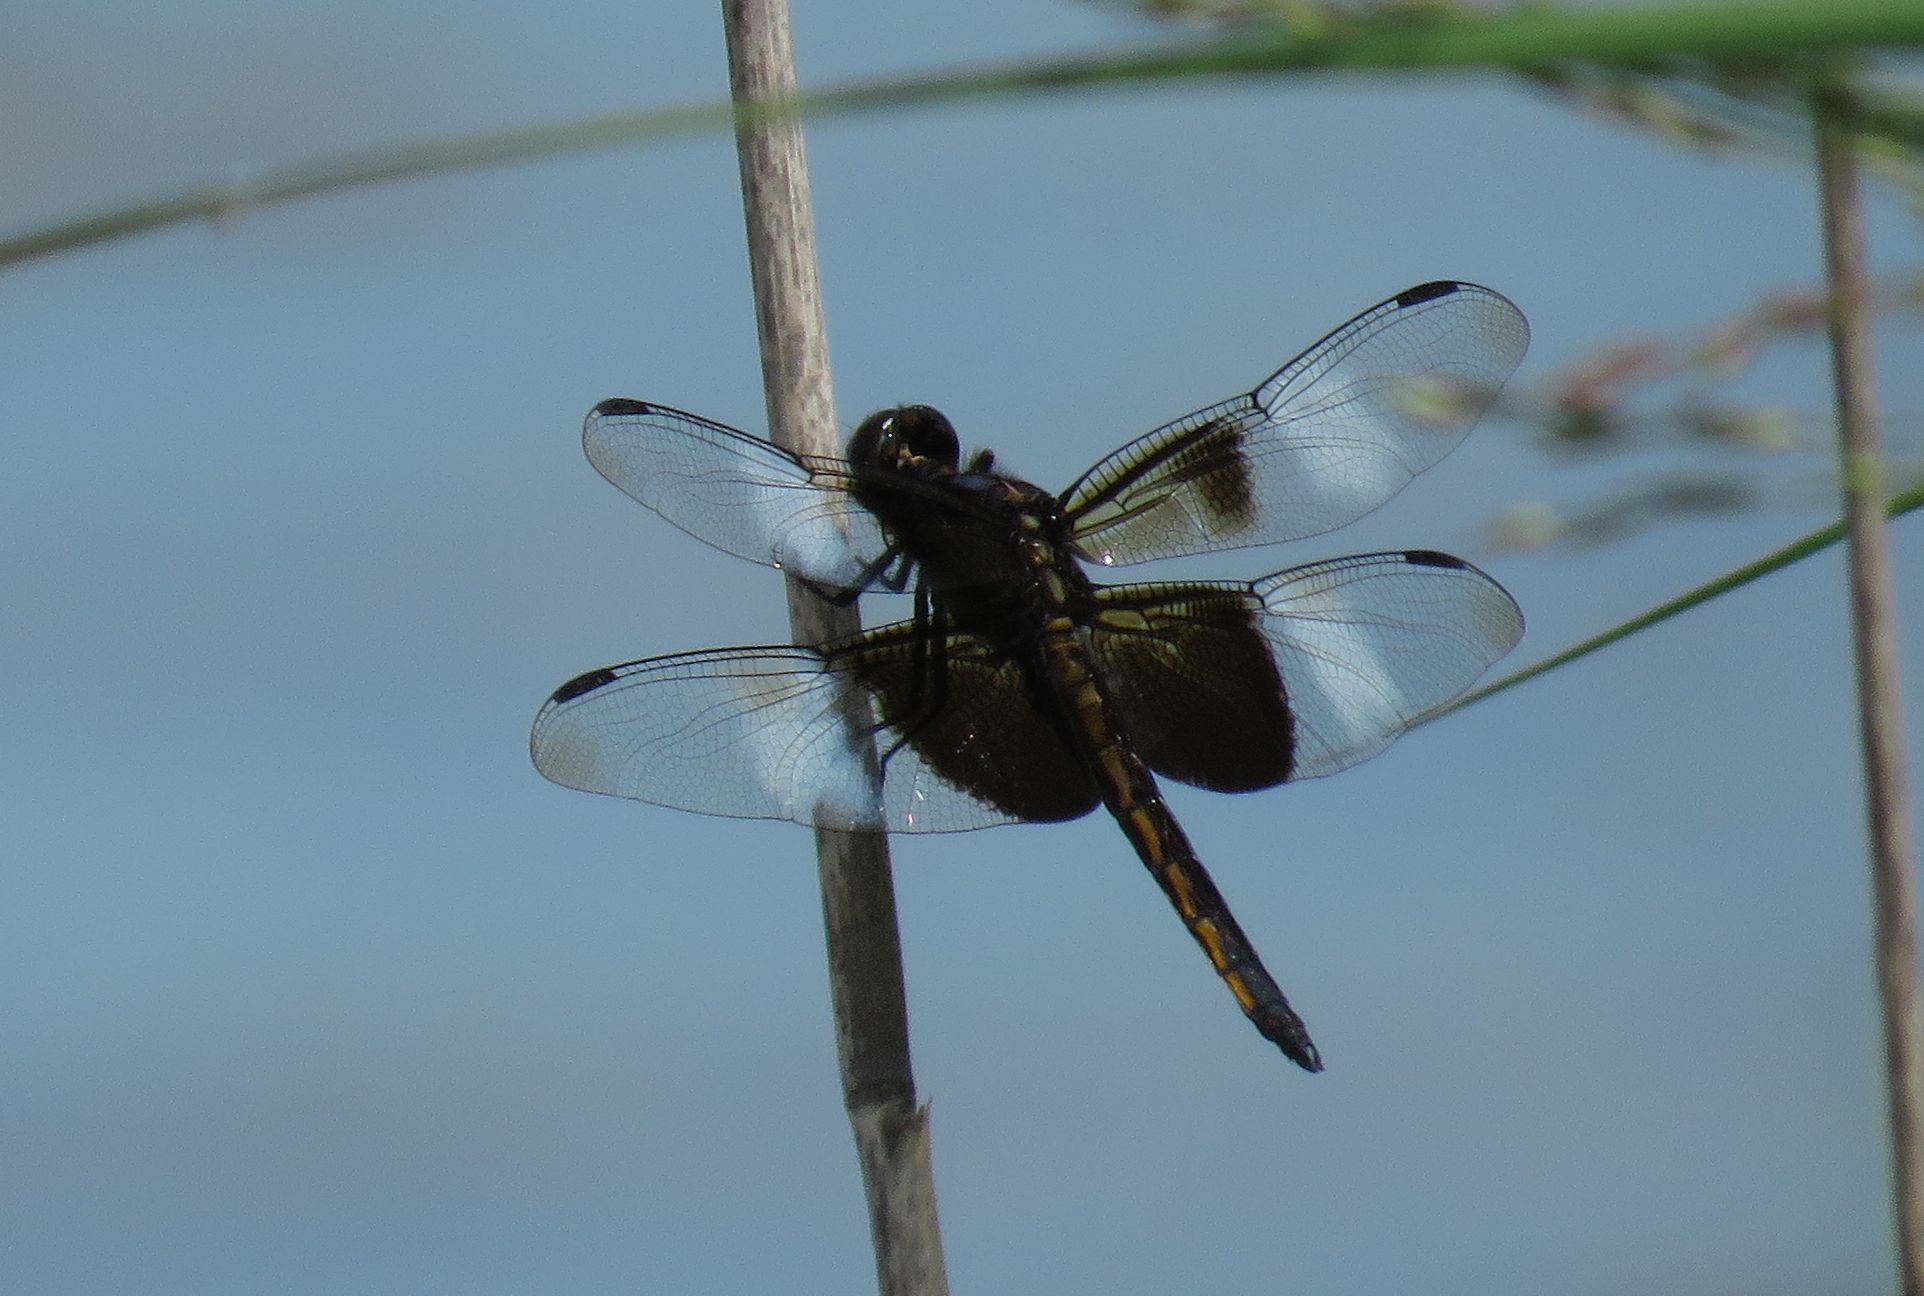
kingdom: Animalia
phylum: Arthropoda
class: Insecta
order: Odonata
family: Libellulidae
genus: Libellula
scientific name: Libellula luctuosa
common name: Widow skimmer
